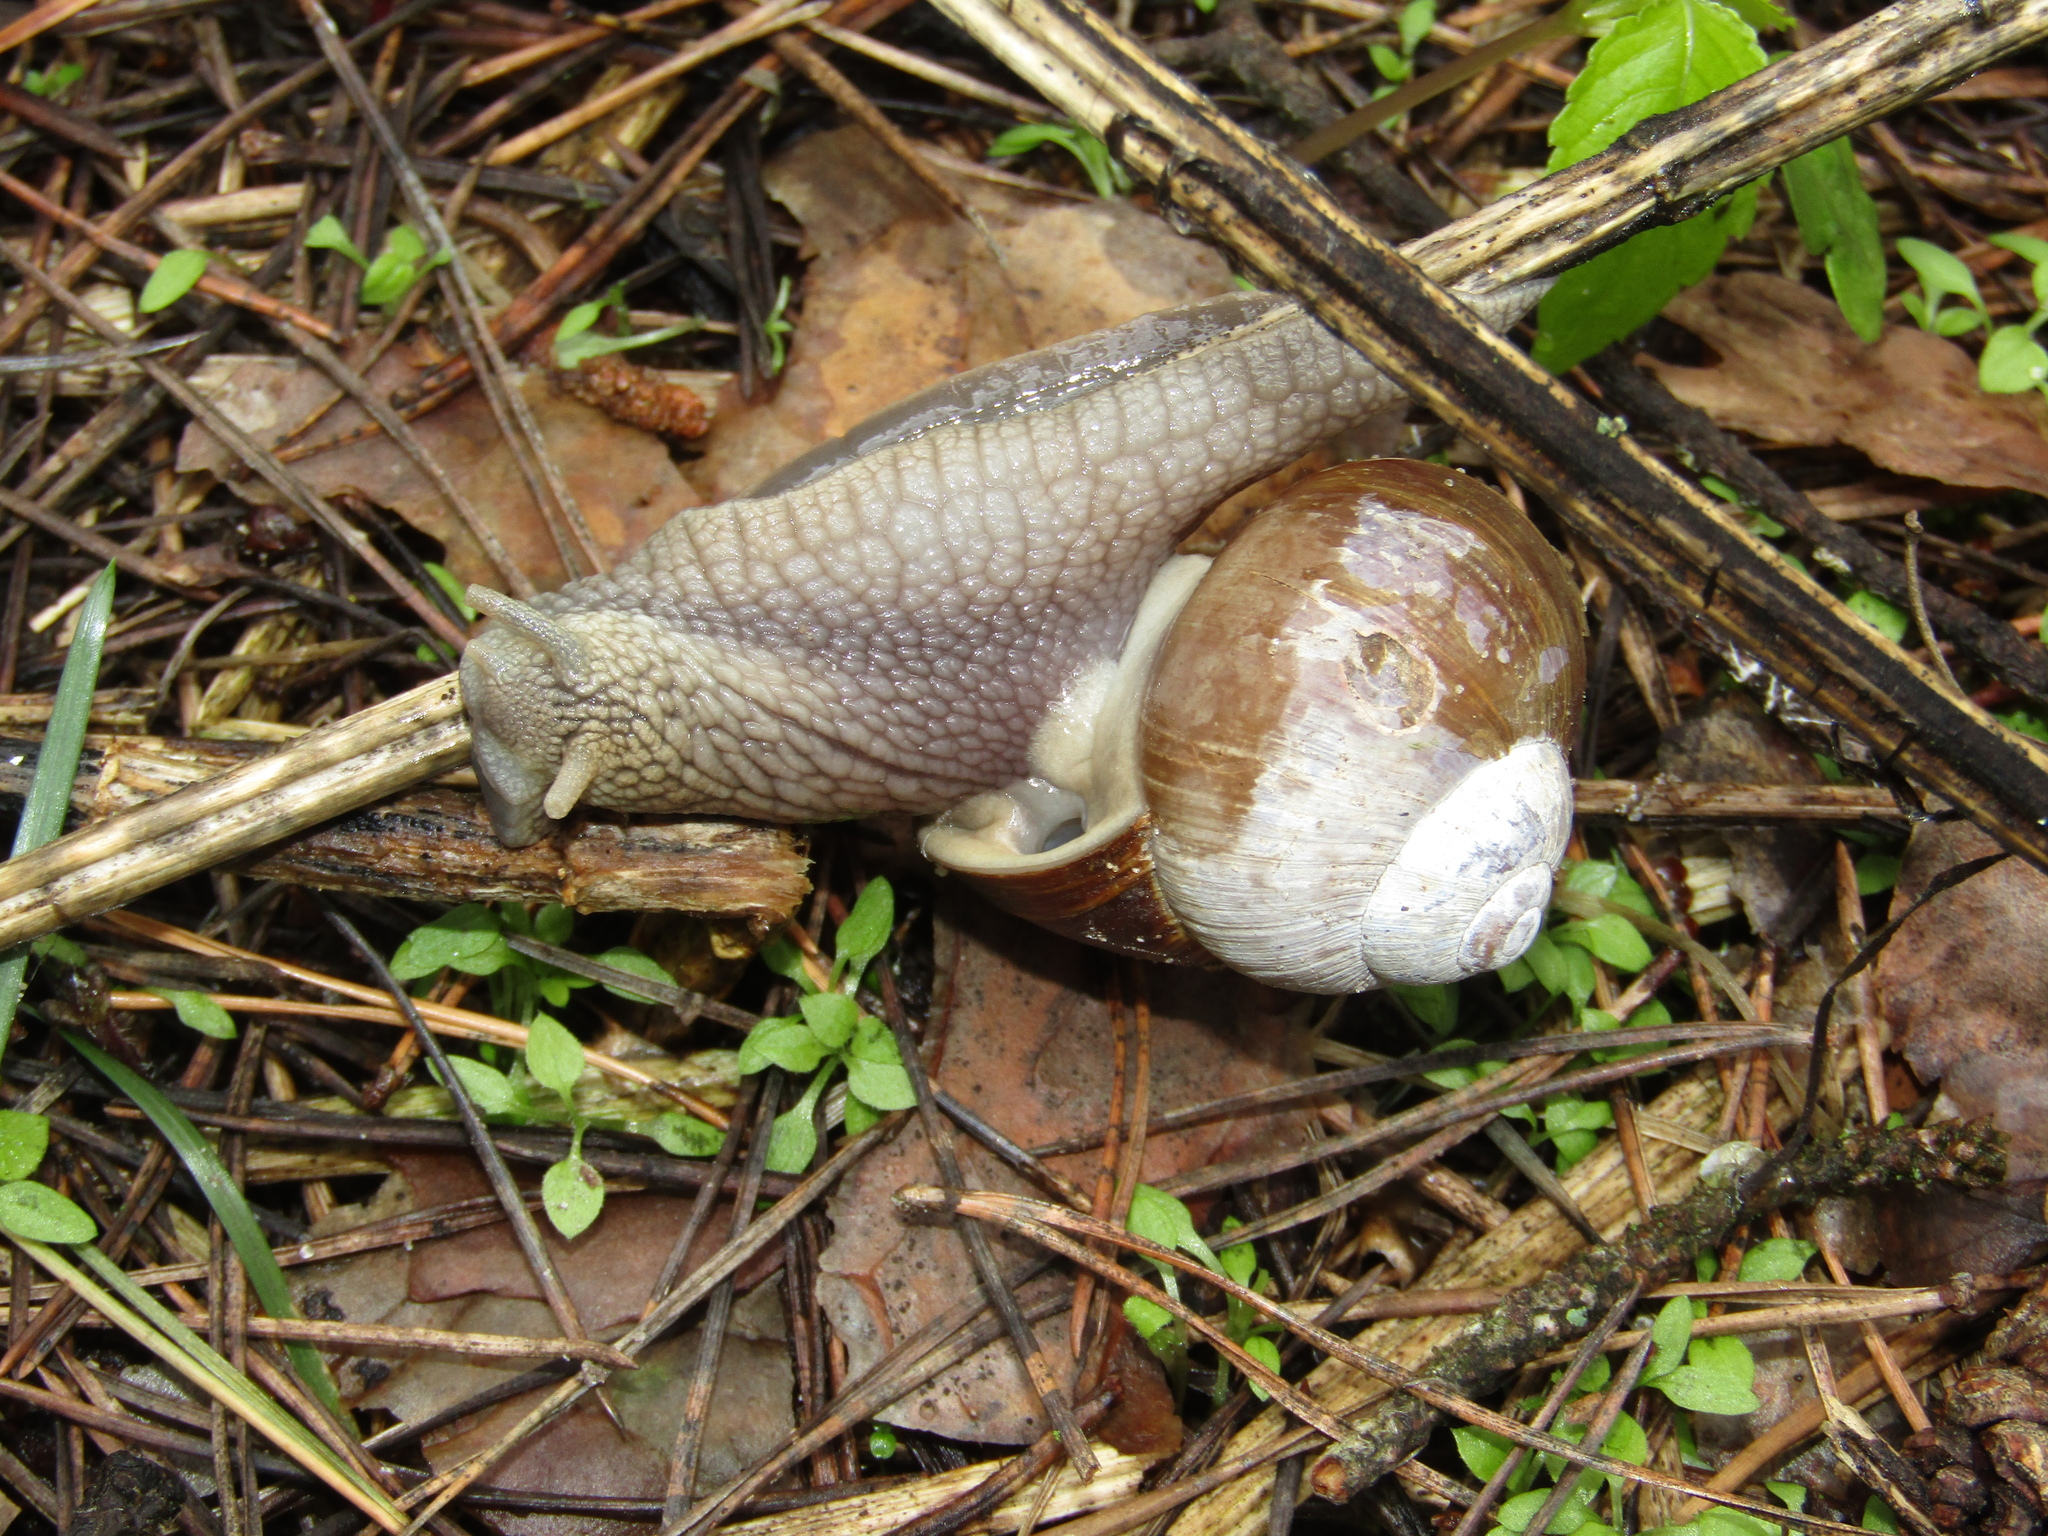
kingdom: Animalia
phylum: Mollusca
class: Gastropoda
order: Stylommatophora
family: Helicidae
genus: Helix
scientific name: Helix pomatia
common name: Roman snail
